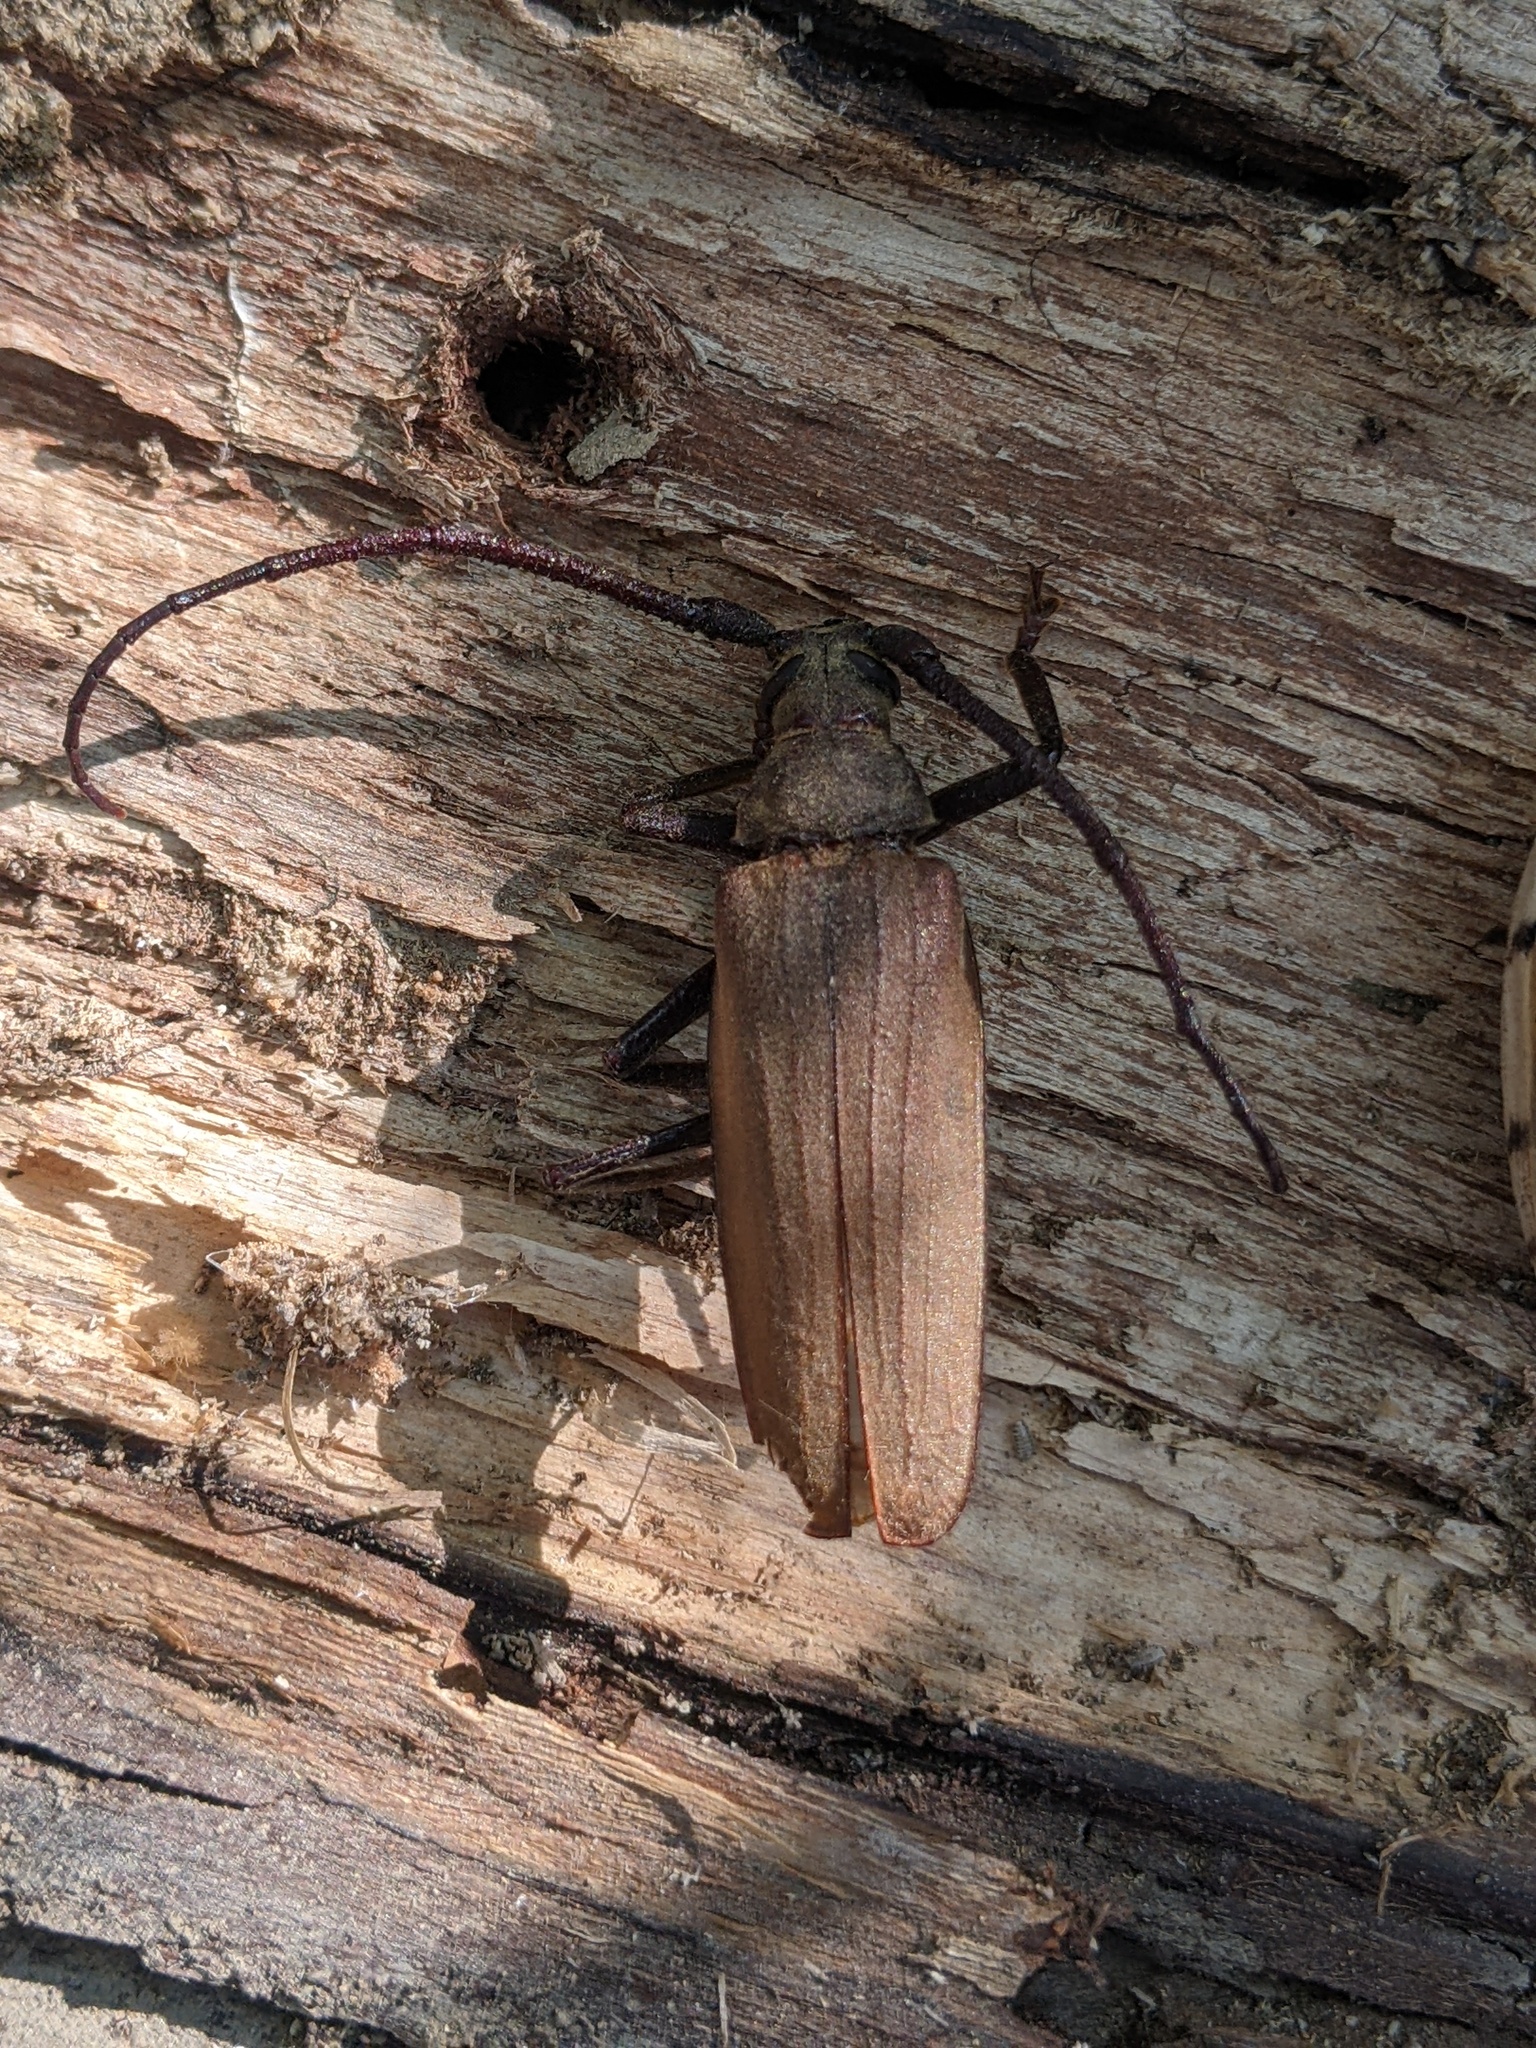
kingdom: Animalia
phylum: Arthropoda
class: Insecta
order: Coleoptera
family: Cerambycidae
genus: Aegosoma
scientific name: Aegosoma scabricorne
